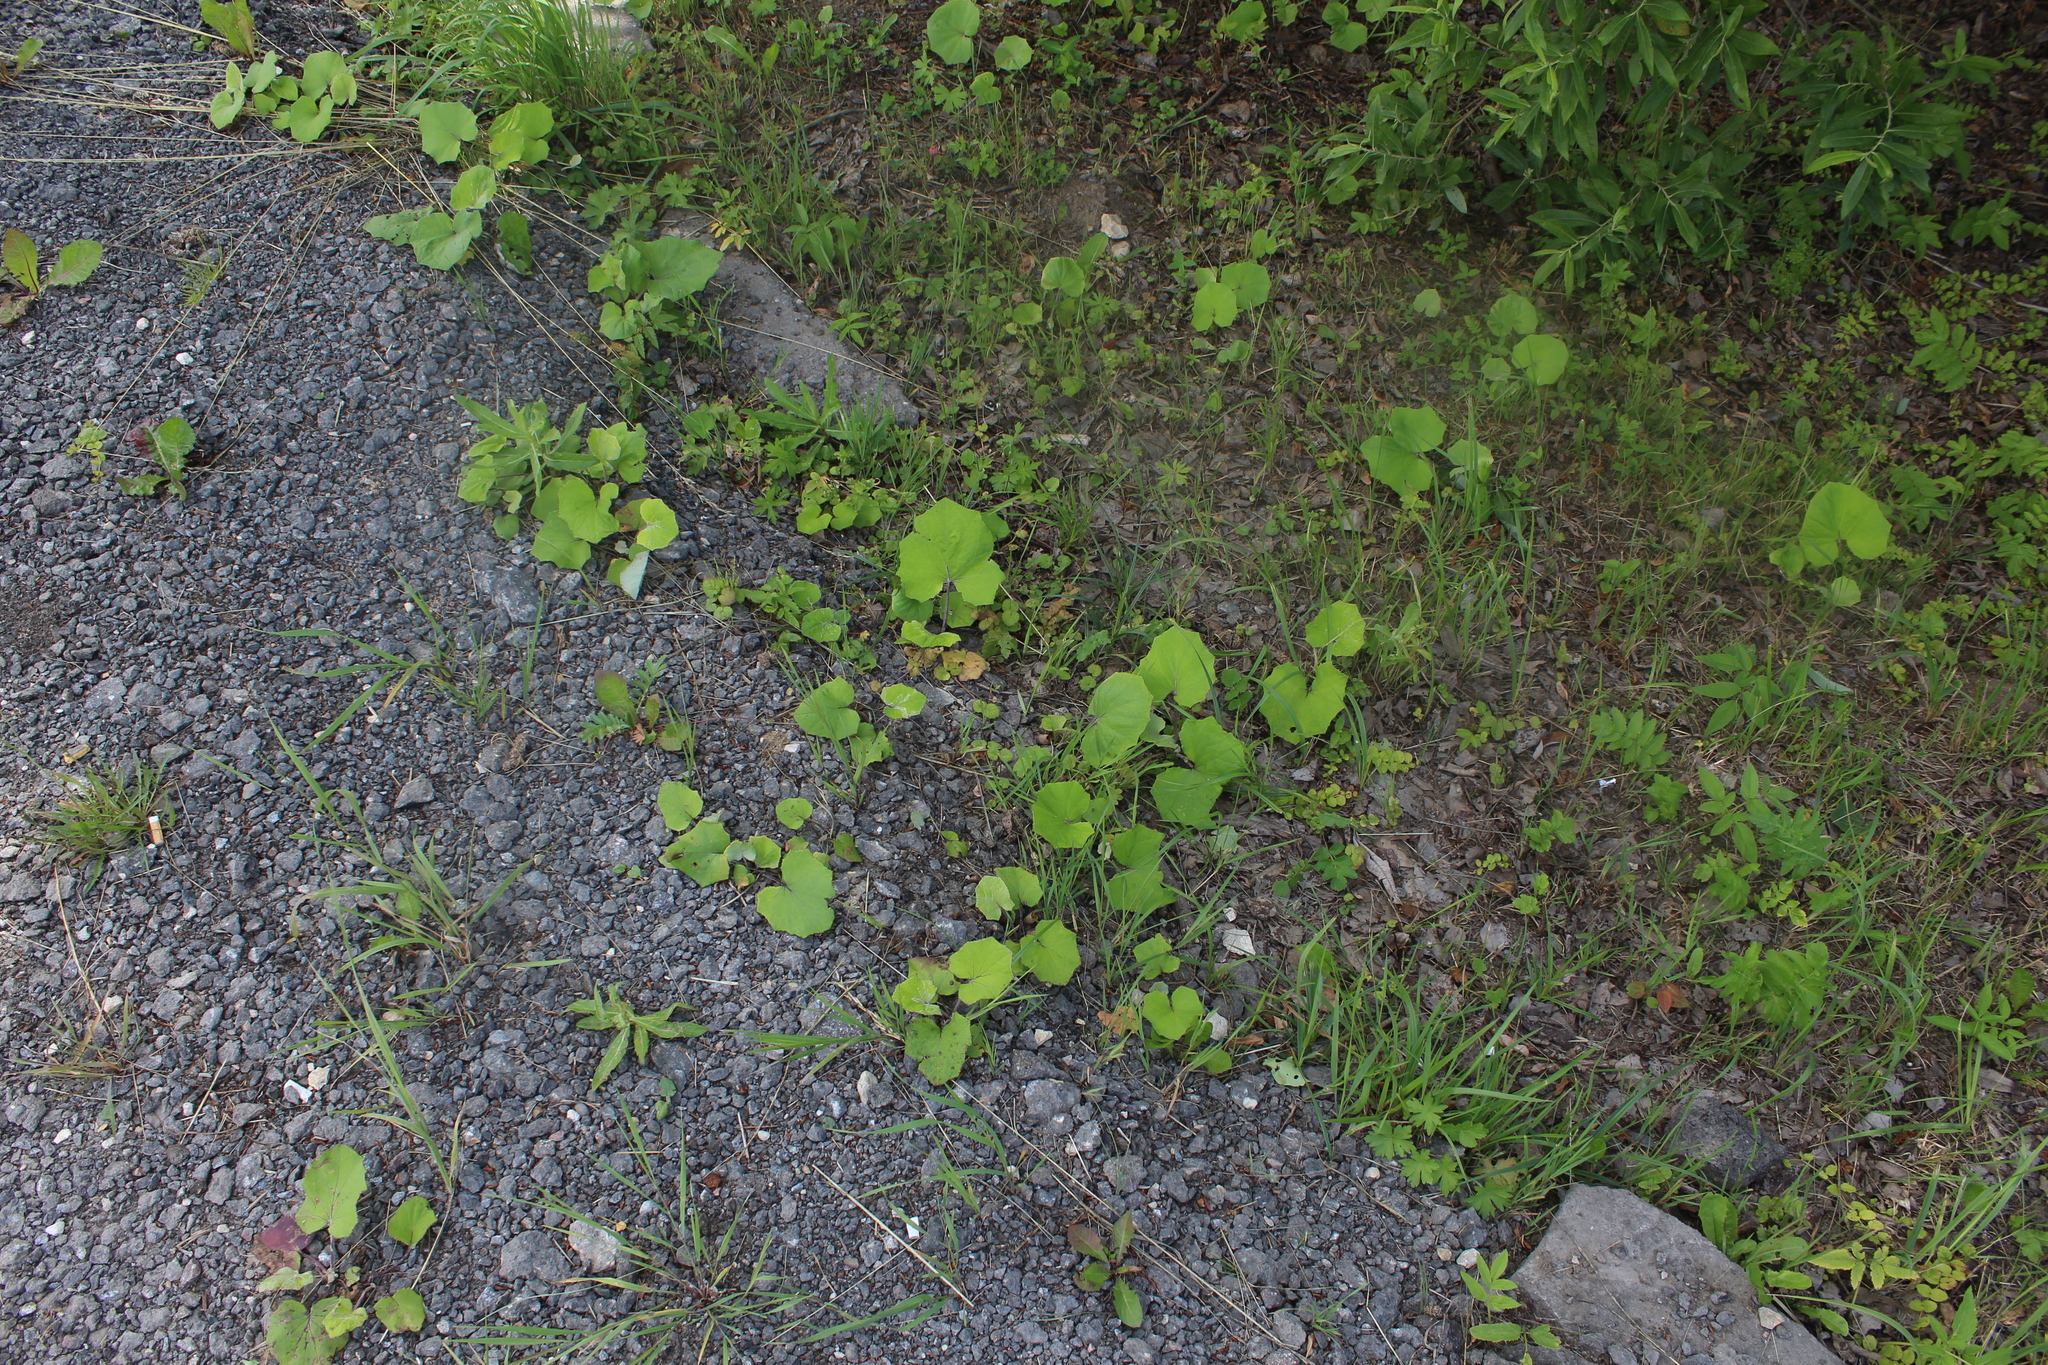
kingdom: Plantae
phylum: Tracheophyta
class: Magnoliopsida
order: Asterales
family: Asteraceae
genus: Tussilago
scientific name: Tussilago farfara
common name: Coltsfoot
